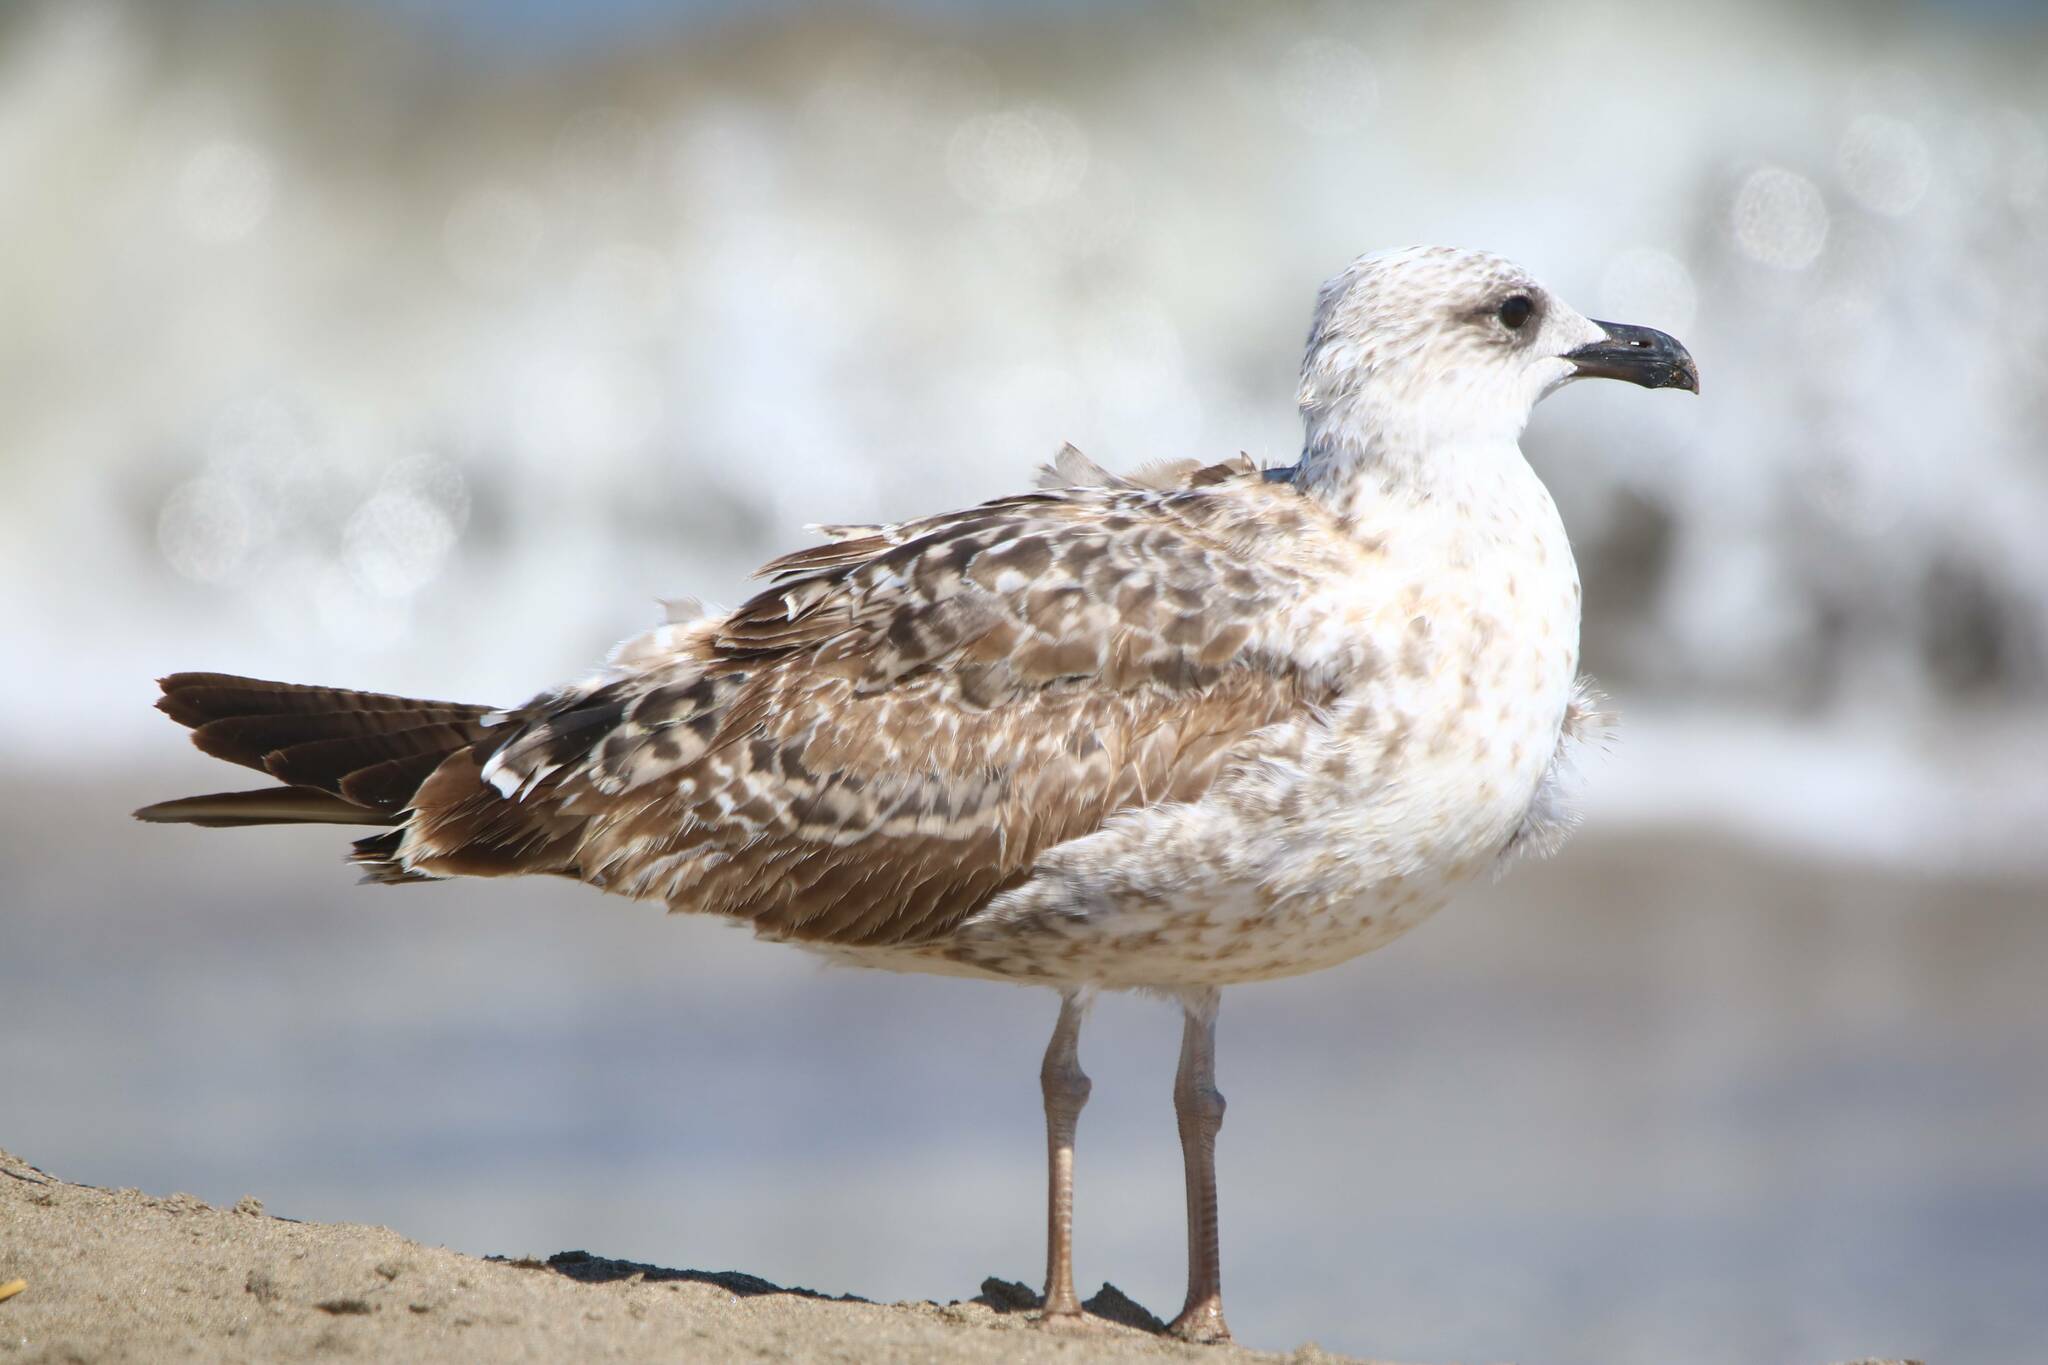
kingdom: Animalia
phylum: Chordata
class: Aves
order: Charadriiformes
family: Laridae
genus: Larus
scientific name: Larus michahellis
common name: Yellow-legged gull
